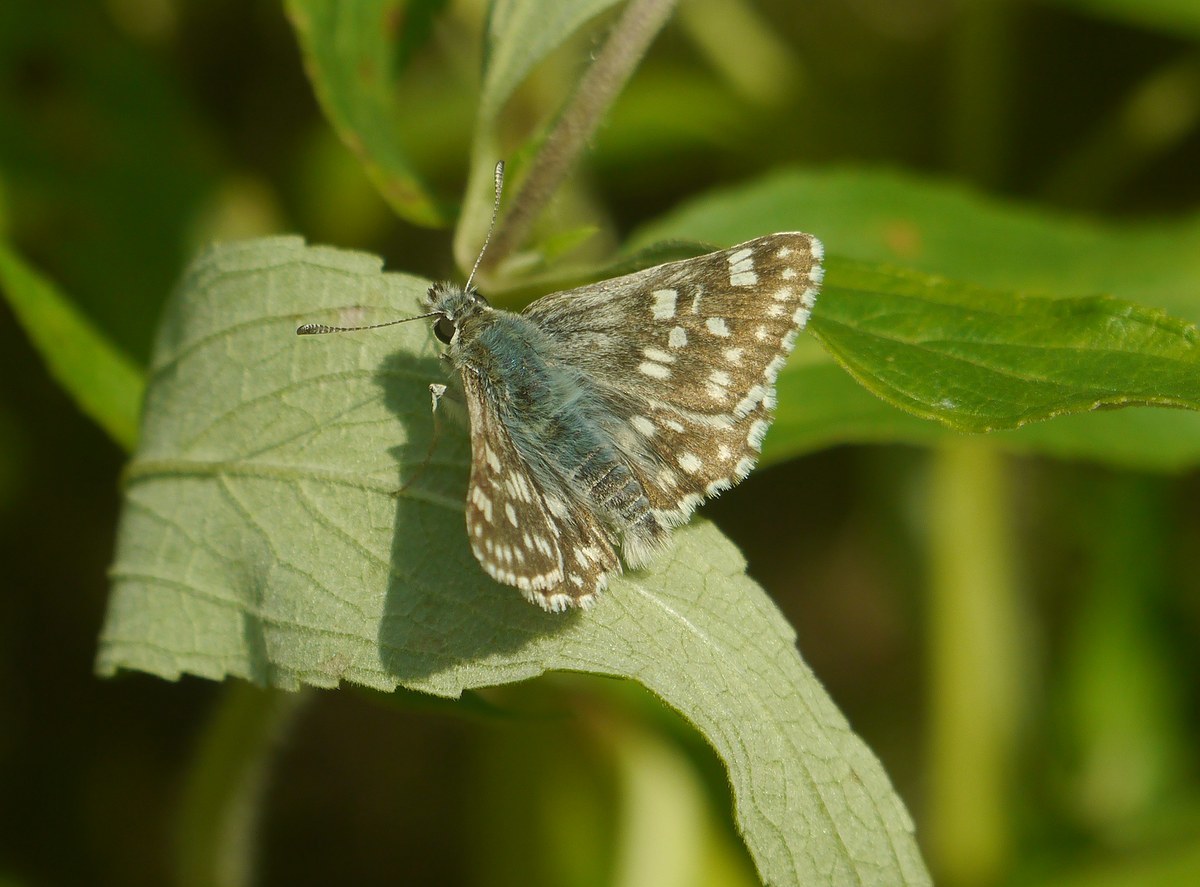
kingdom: Animalia
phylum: Arthropoda
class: Insecta
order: Lepidoptera
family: Hesperiidae
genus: Syrichtus
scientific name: Syrichtus tessellum
